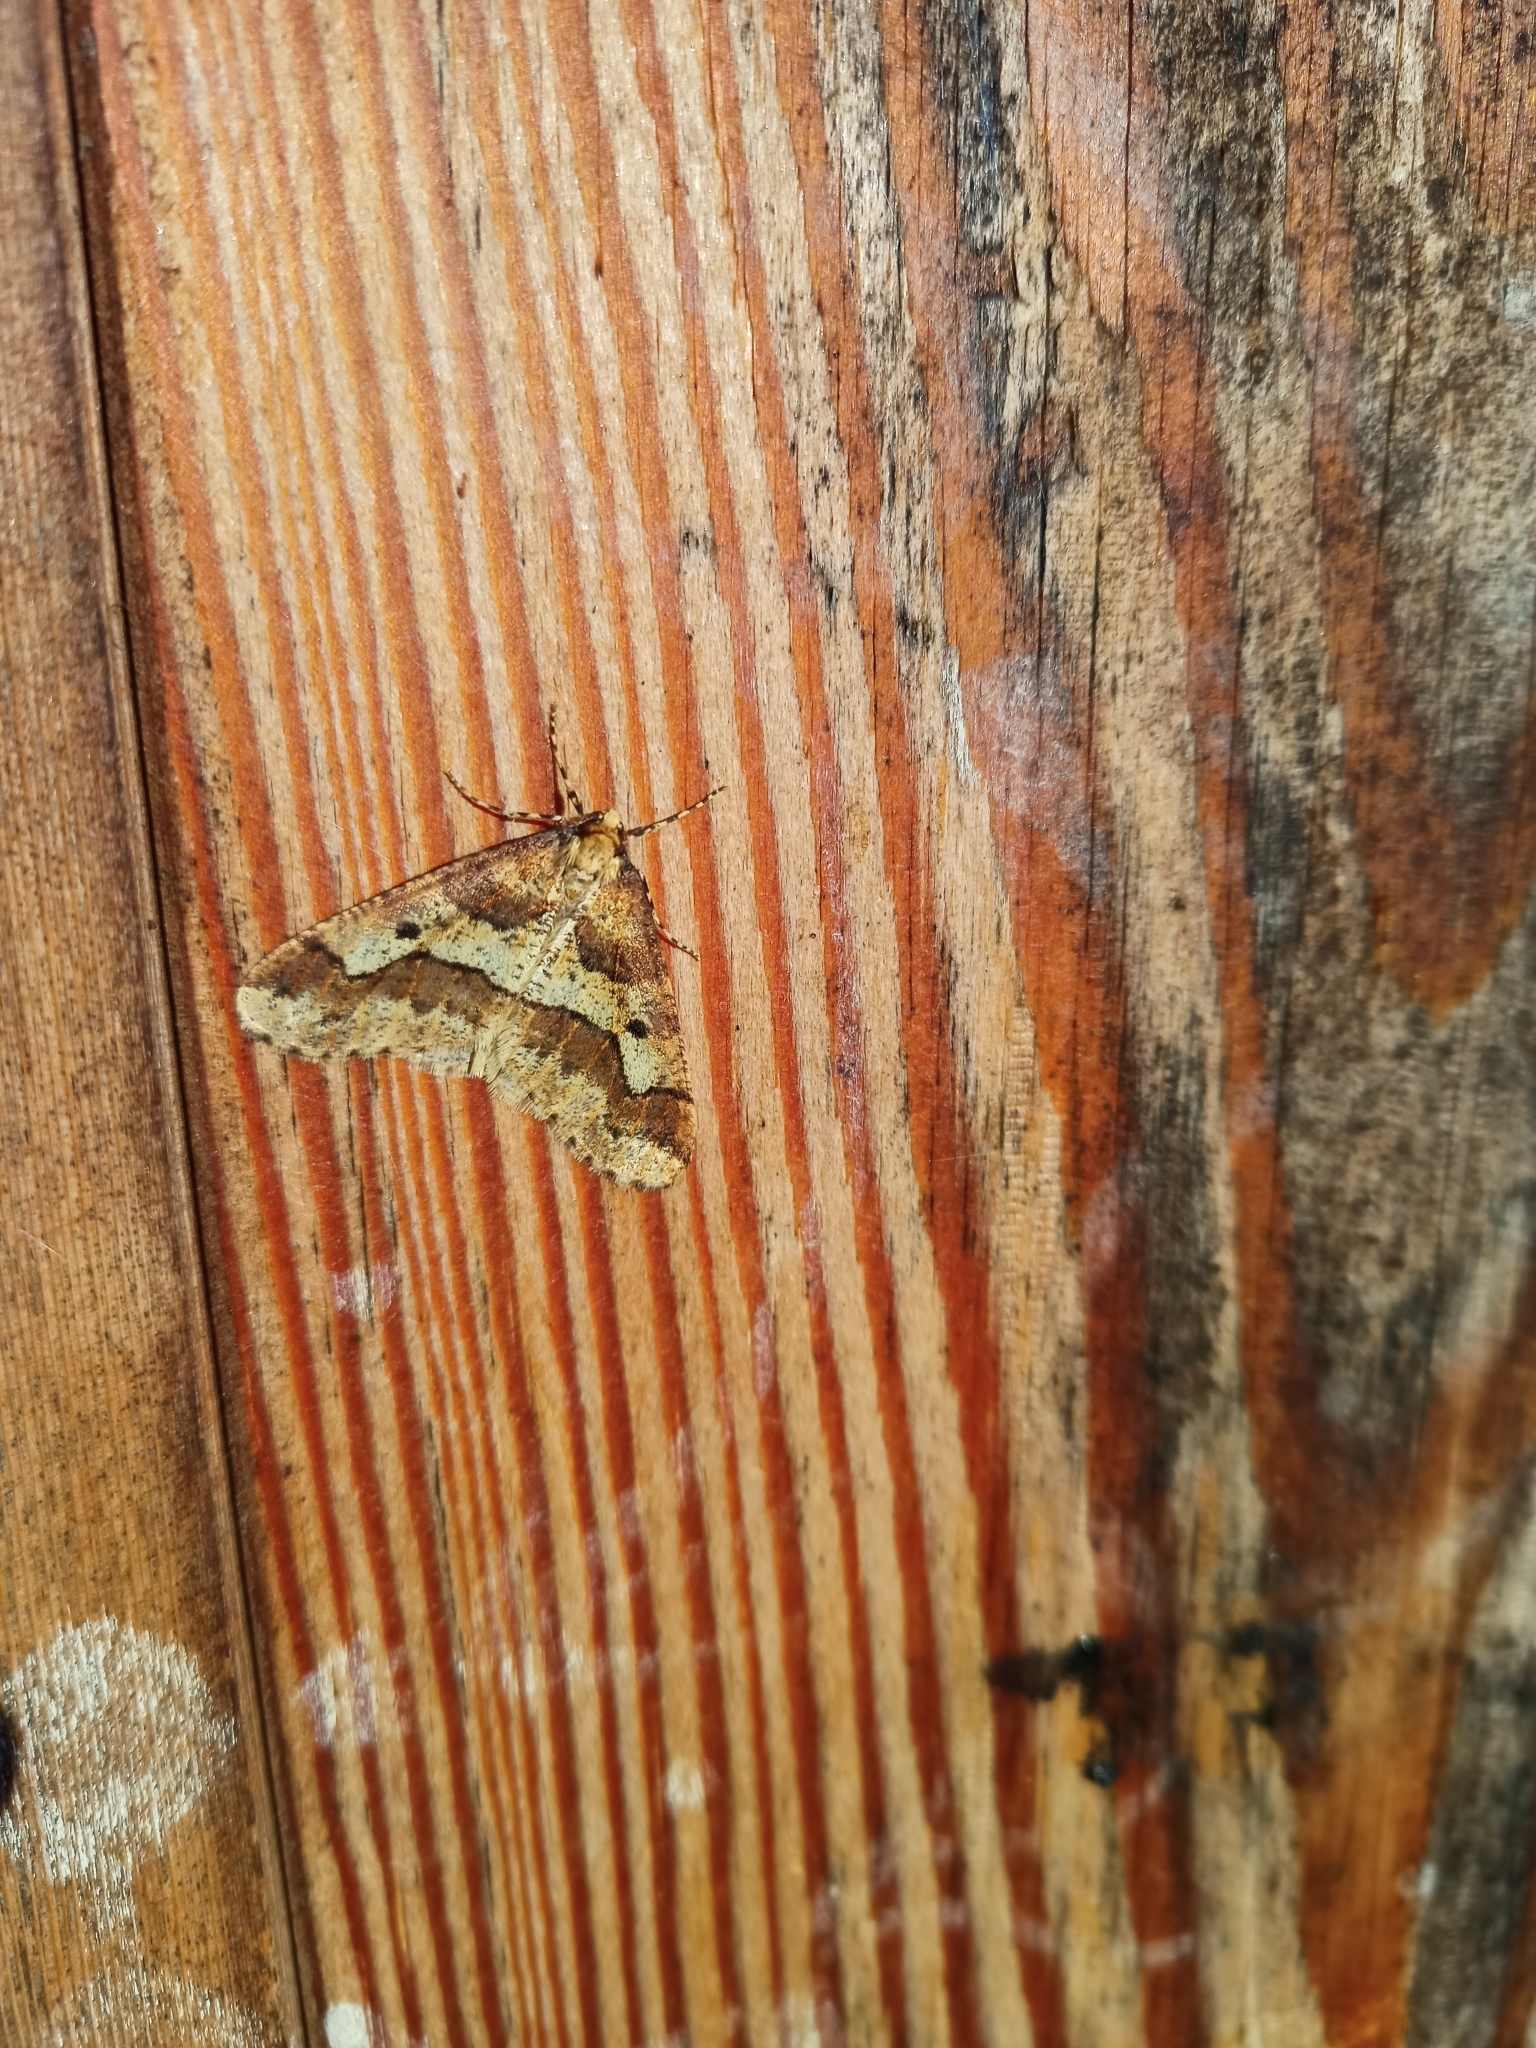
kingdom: Animalia
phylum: Arthropoda
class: Insecta
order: Lepidoptera
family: Geometridae
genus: Erannis
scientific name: Erannis defoliaria
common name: Mottled umber
